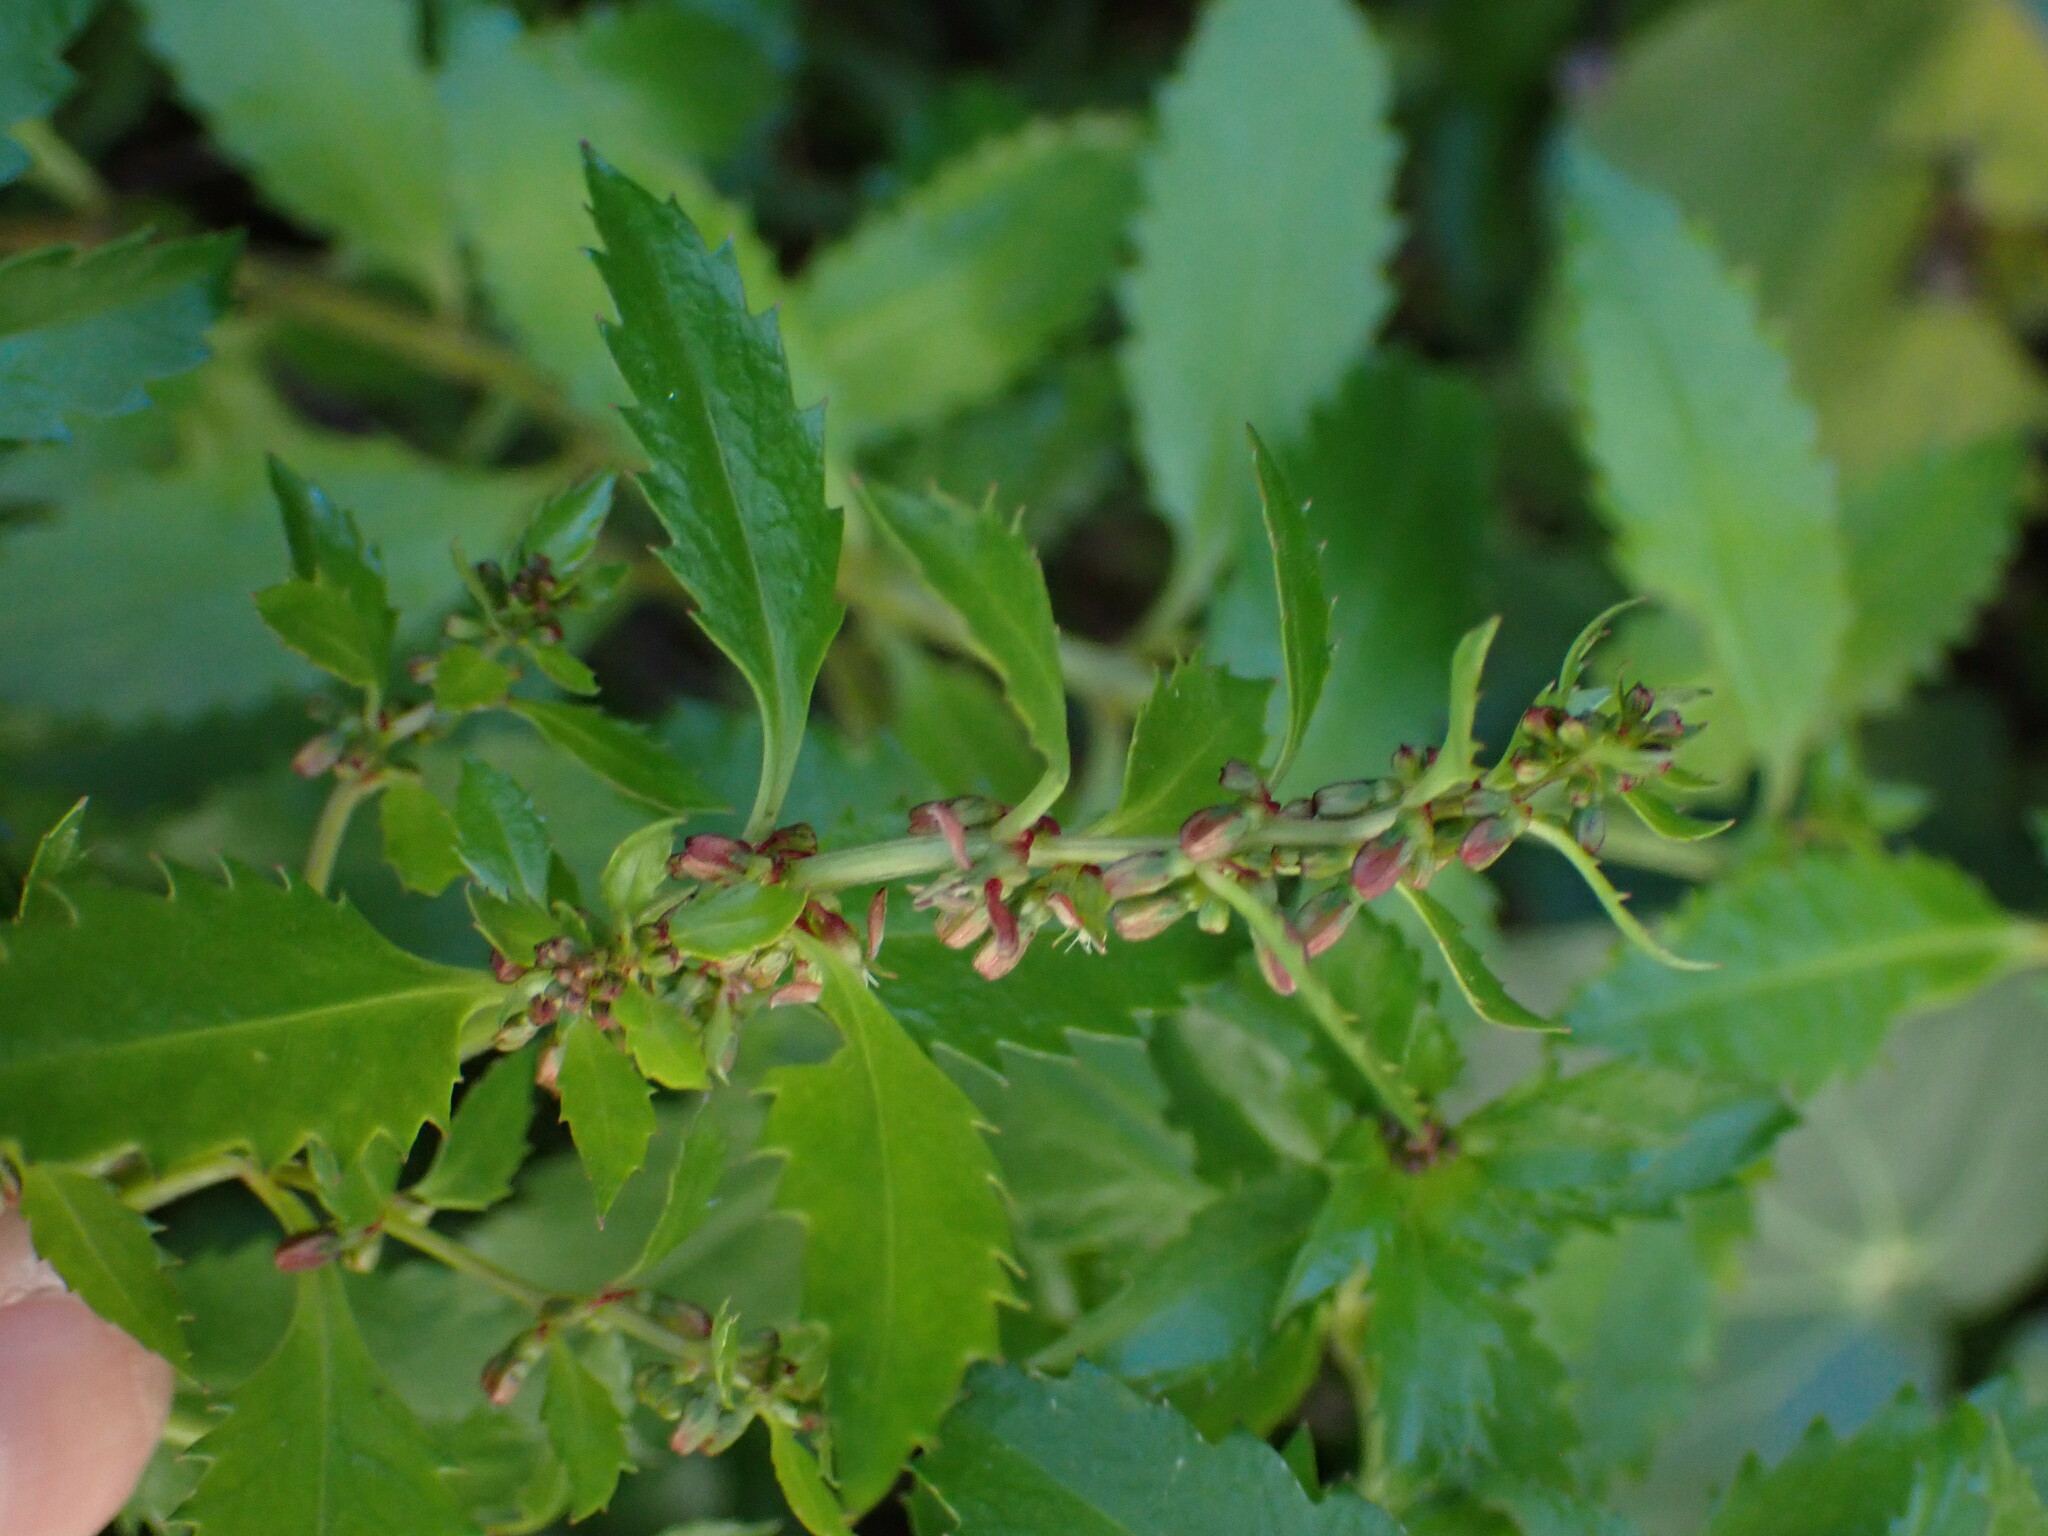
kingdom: Plantae
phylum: Tracheophyta
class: Magnoliopsida
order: Saxifragales
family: Haloragaceae
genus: Haloragis
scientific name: Haloragis erecta
